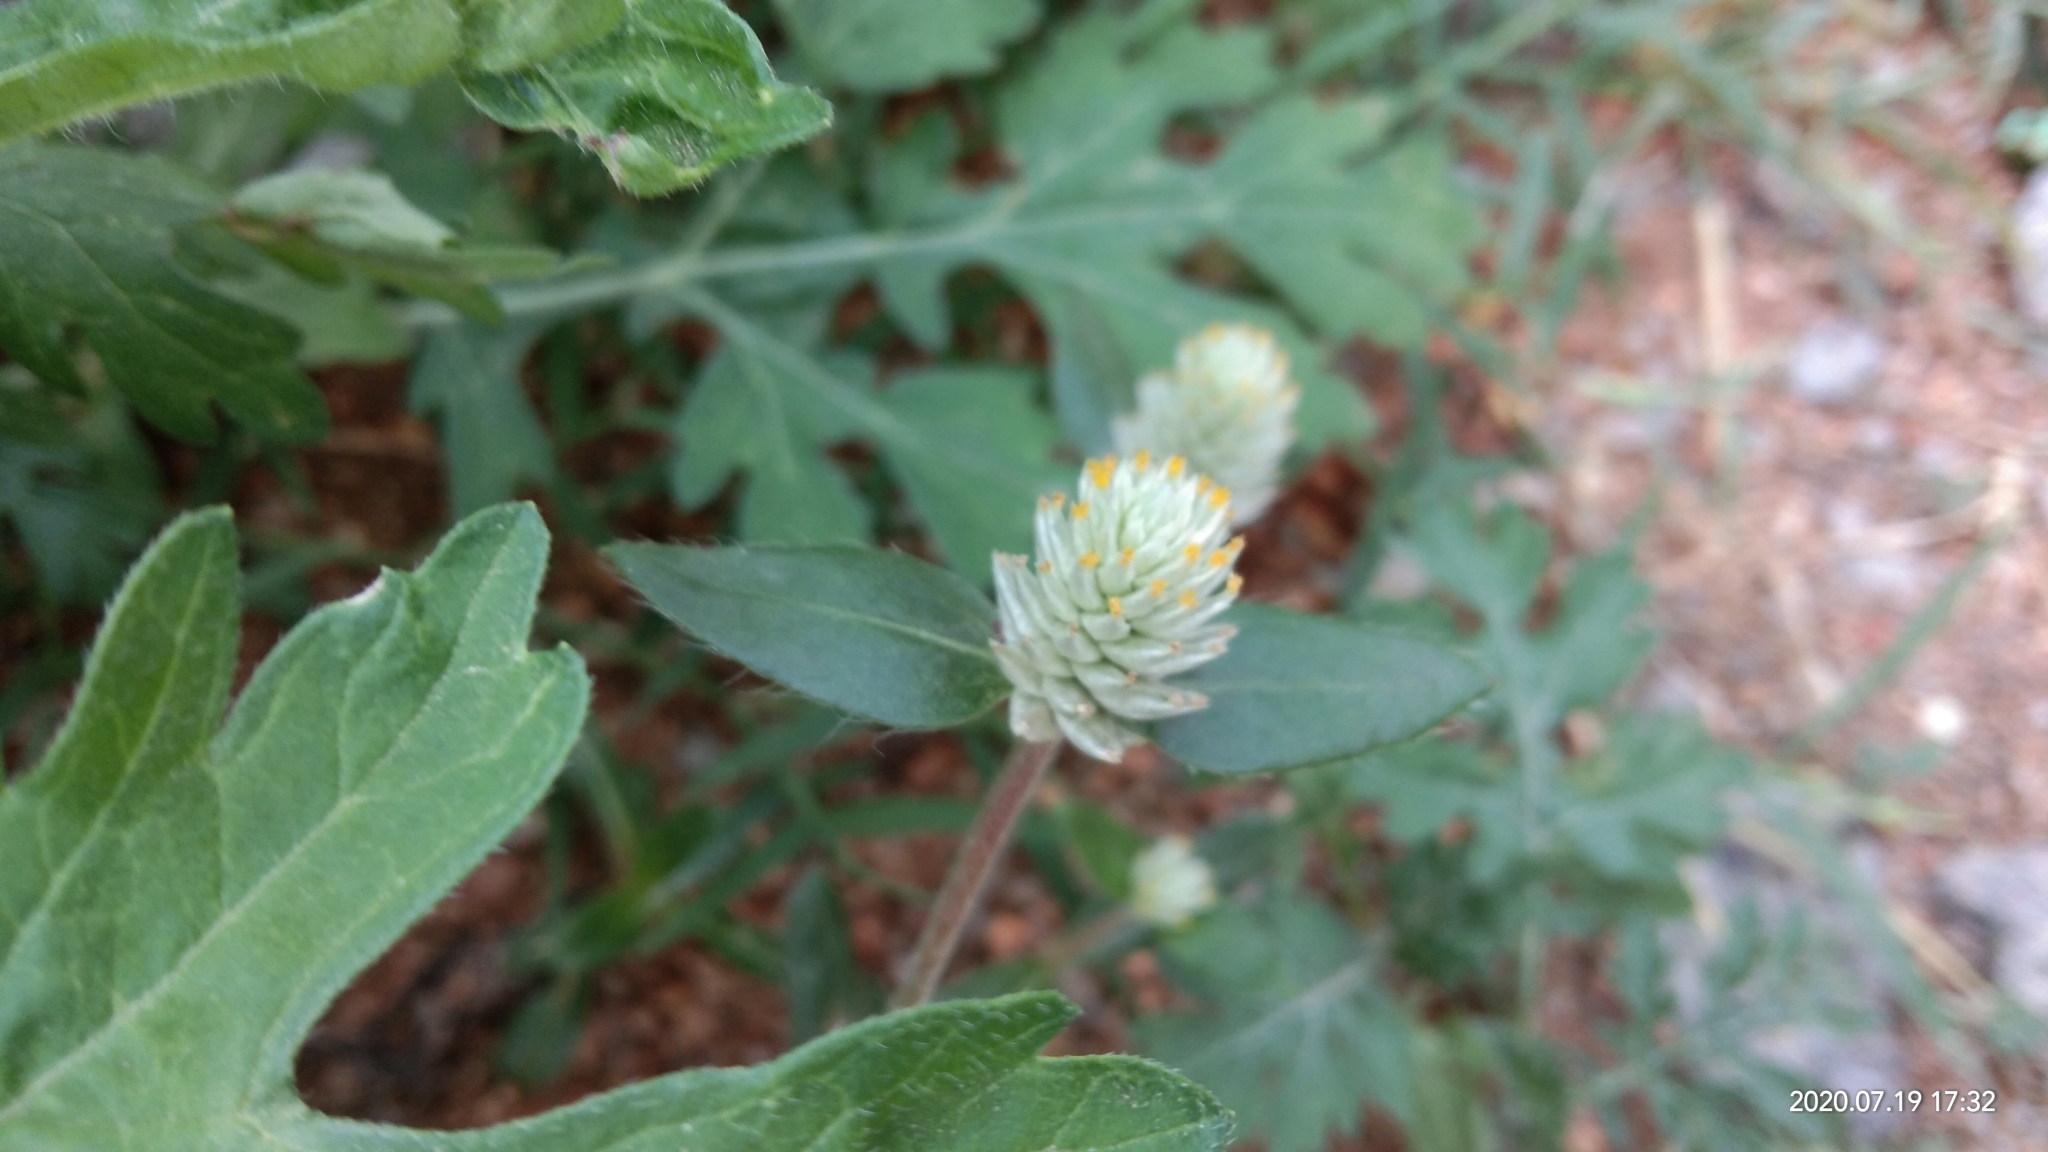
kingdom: Plantae
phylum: Tracheophyta
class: Magnoliopsida
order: Caryophyllales
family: Amaranthaceae
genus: Gomphrena
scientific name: Gomphrena serrata
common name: Arrasa con todo
